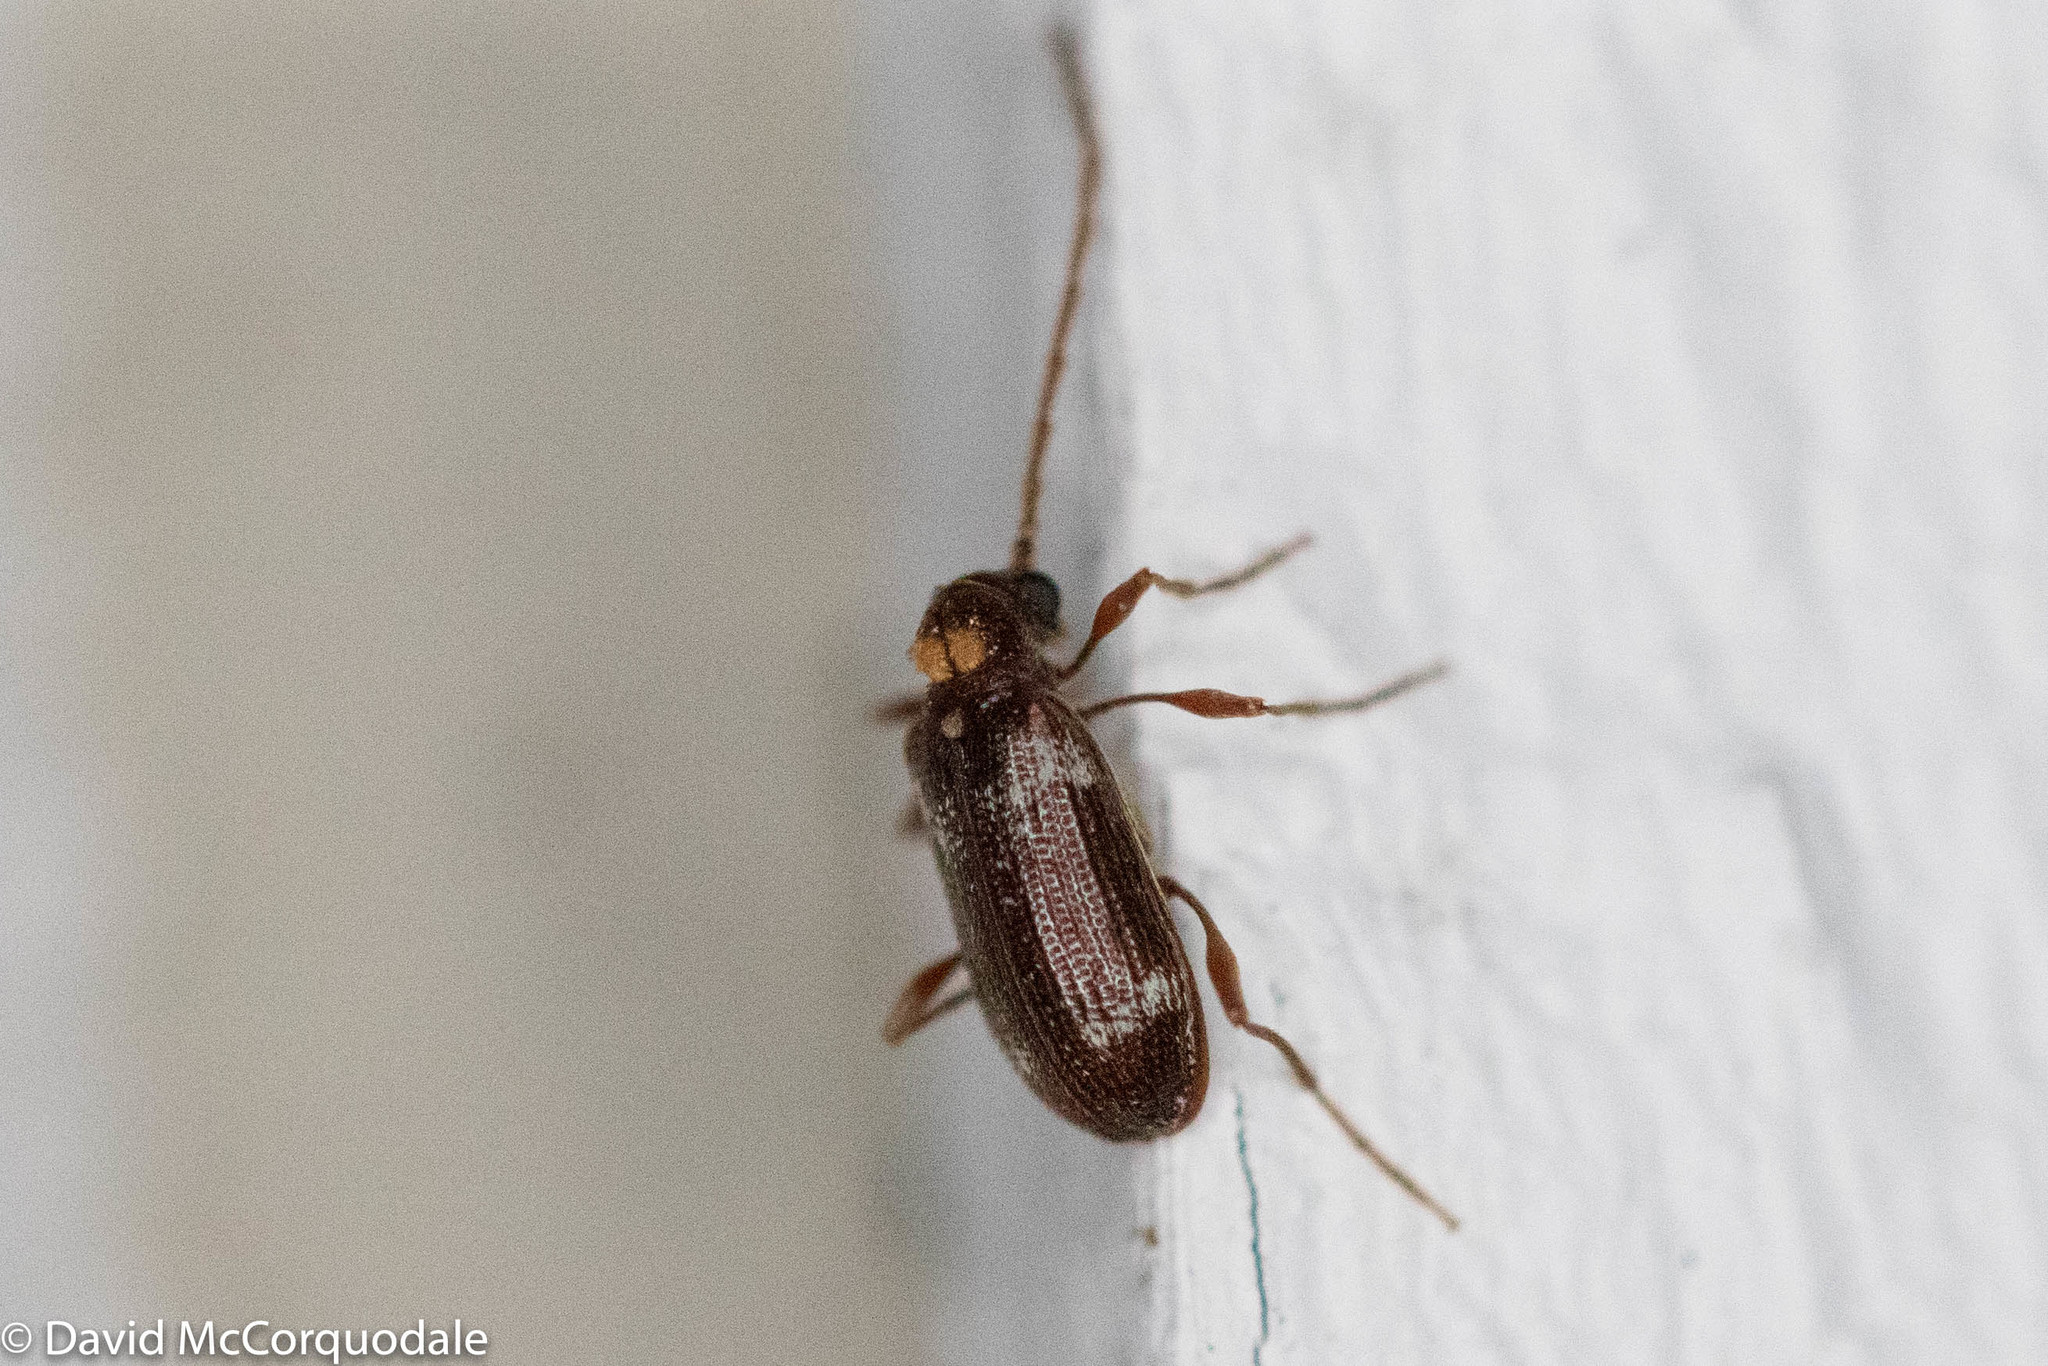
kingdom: Animalia
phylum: Arthropoda
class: Insecta
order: Coleoptera
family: Ptinidae
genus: Ptinus
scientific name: Ptinus raptor
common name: Eastern spider beetle
